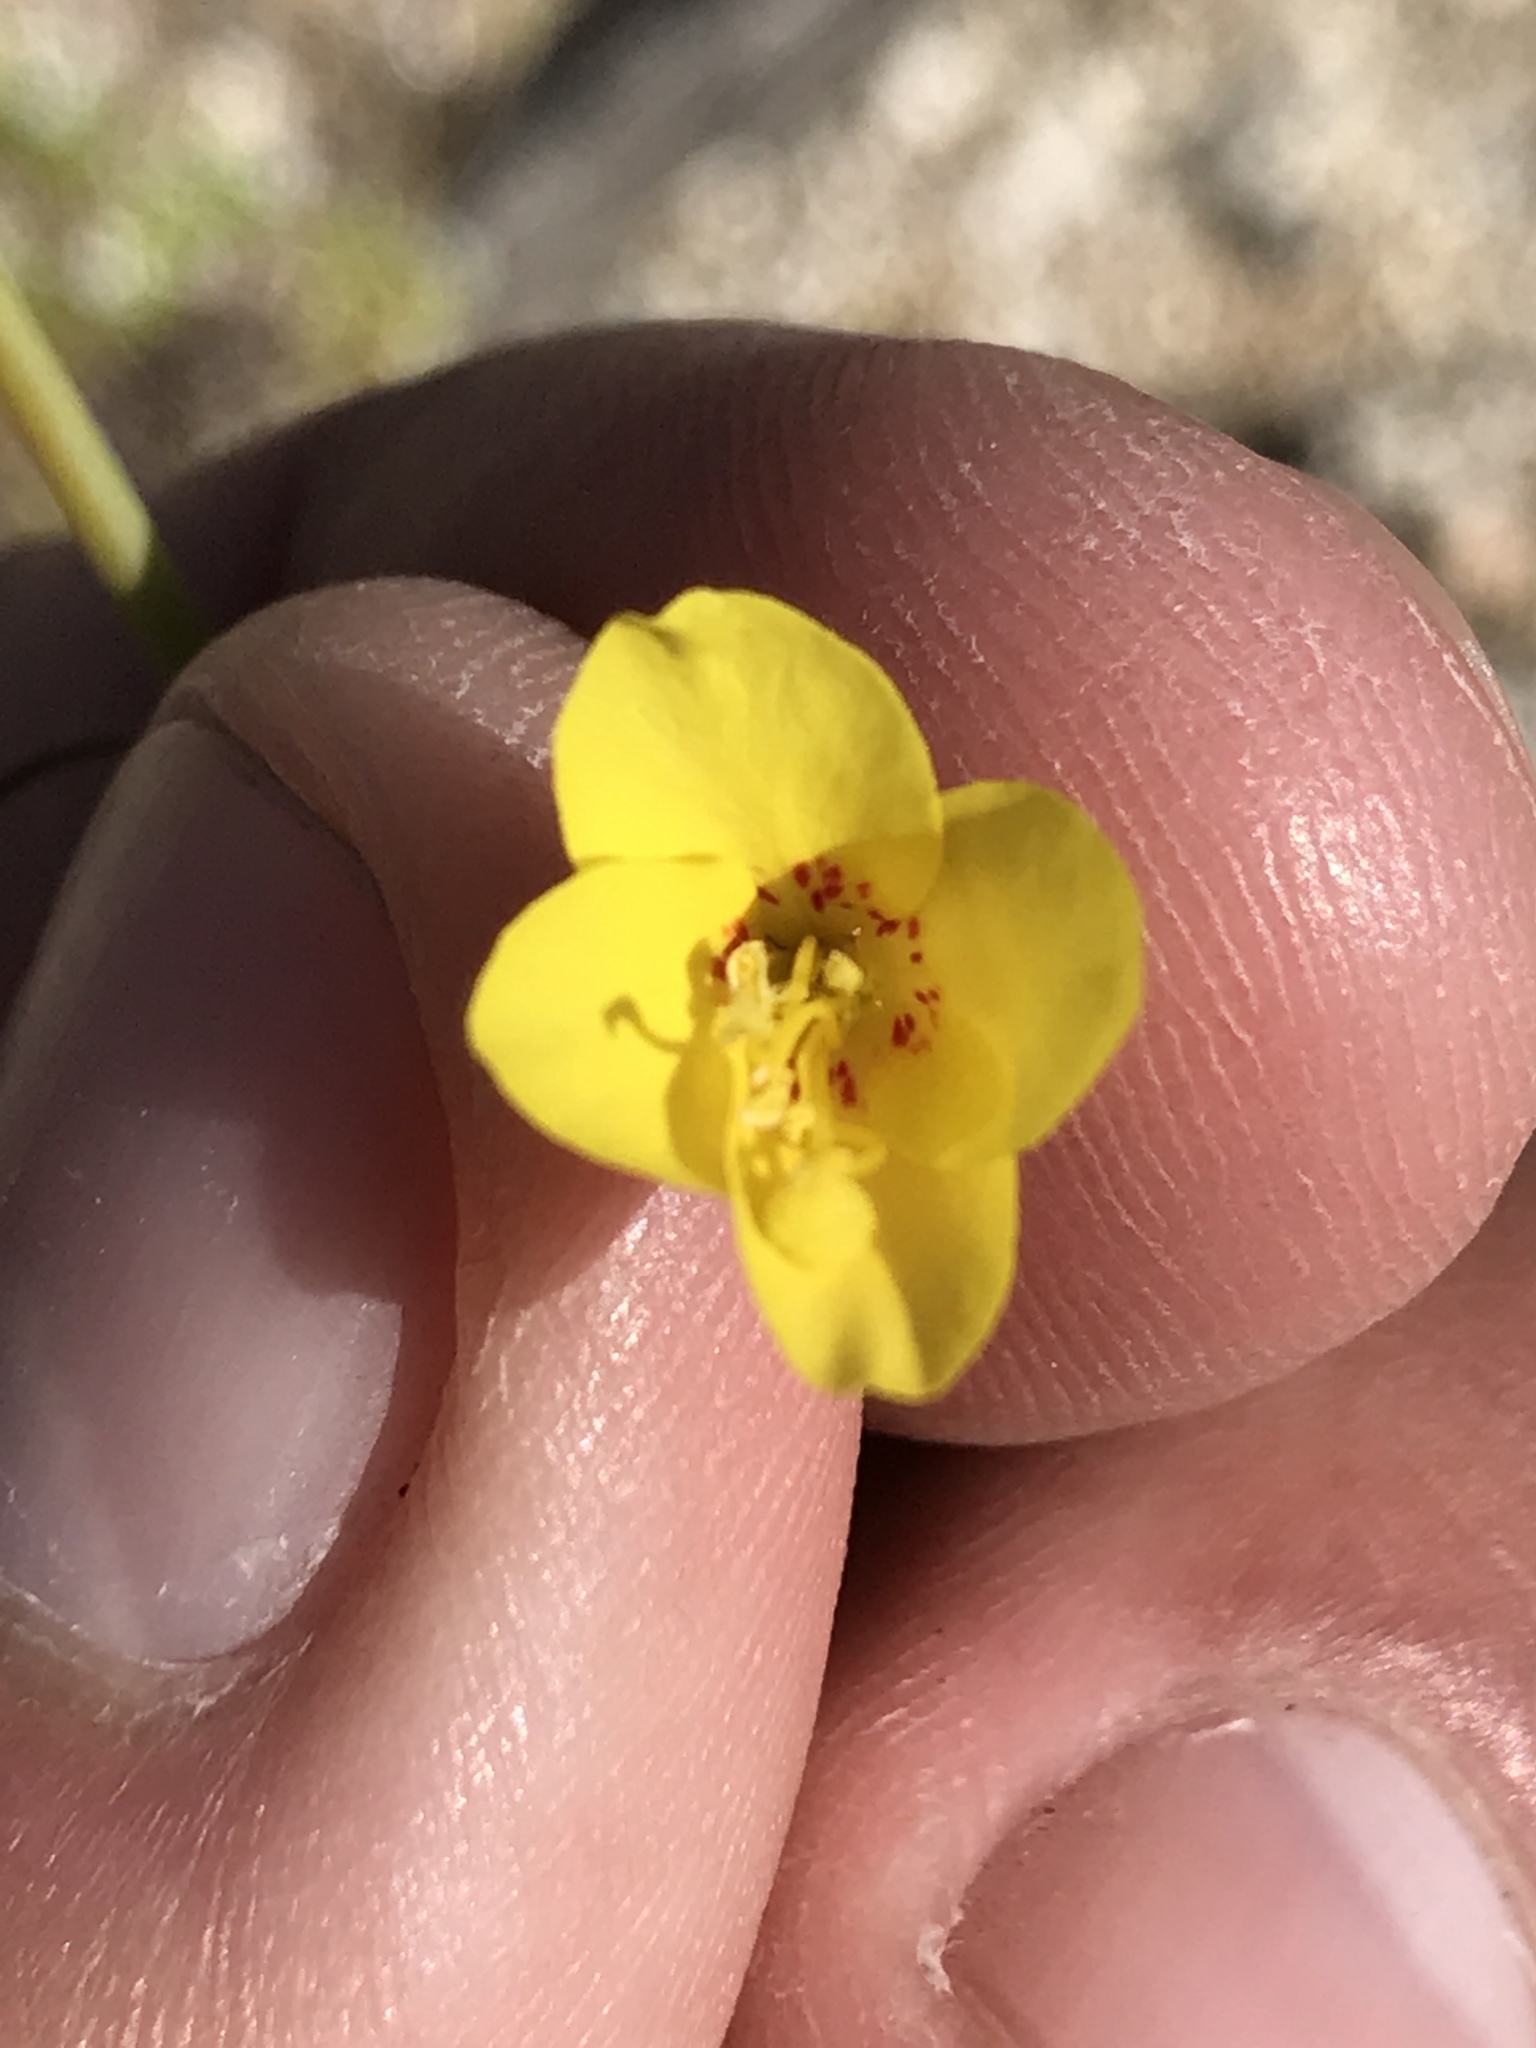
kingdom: Plantae
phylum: Tracheophyta
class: Magnoliopsida
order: Myrtales
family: Onagraceae
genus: Eulobus
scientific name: Eulobus californicus
